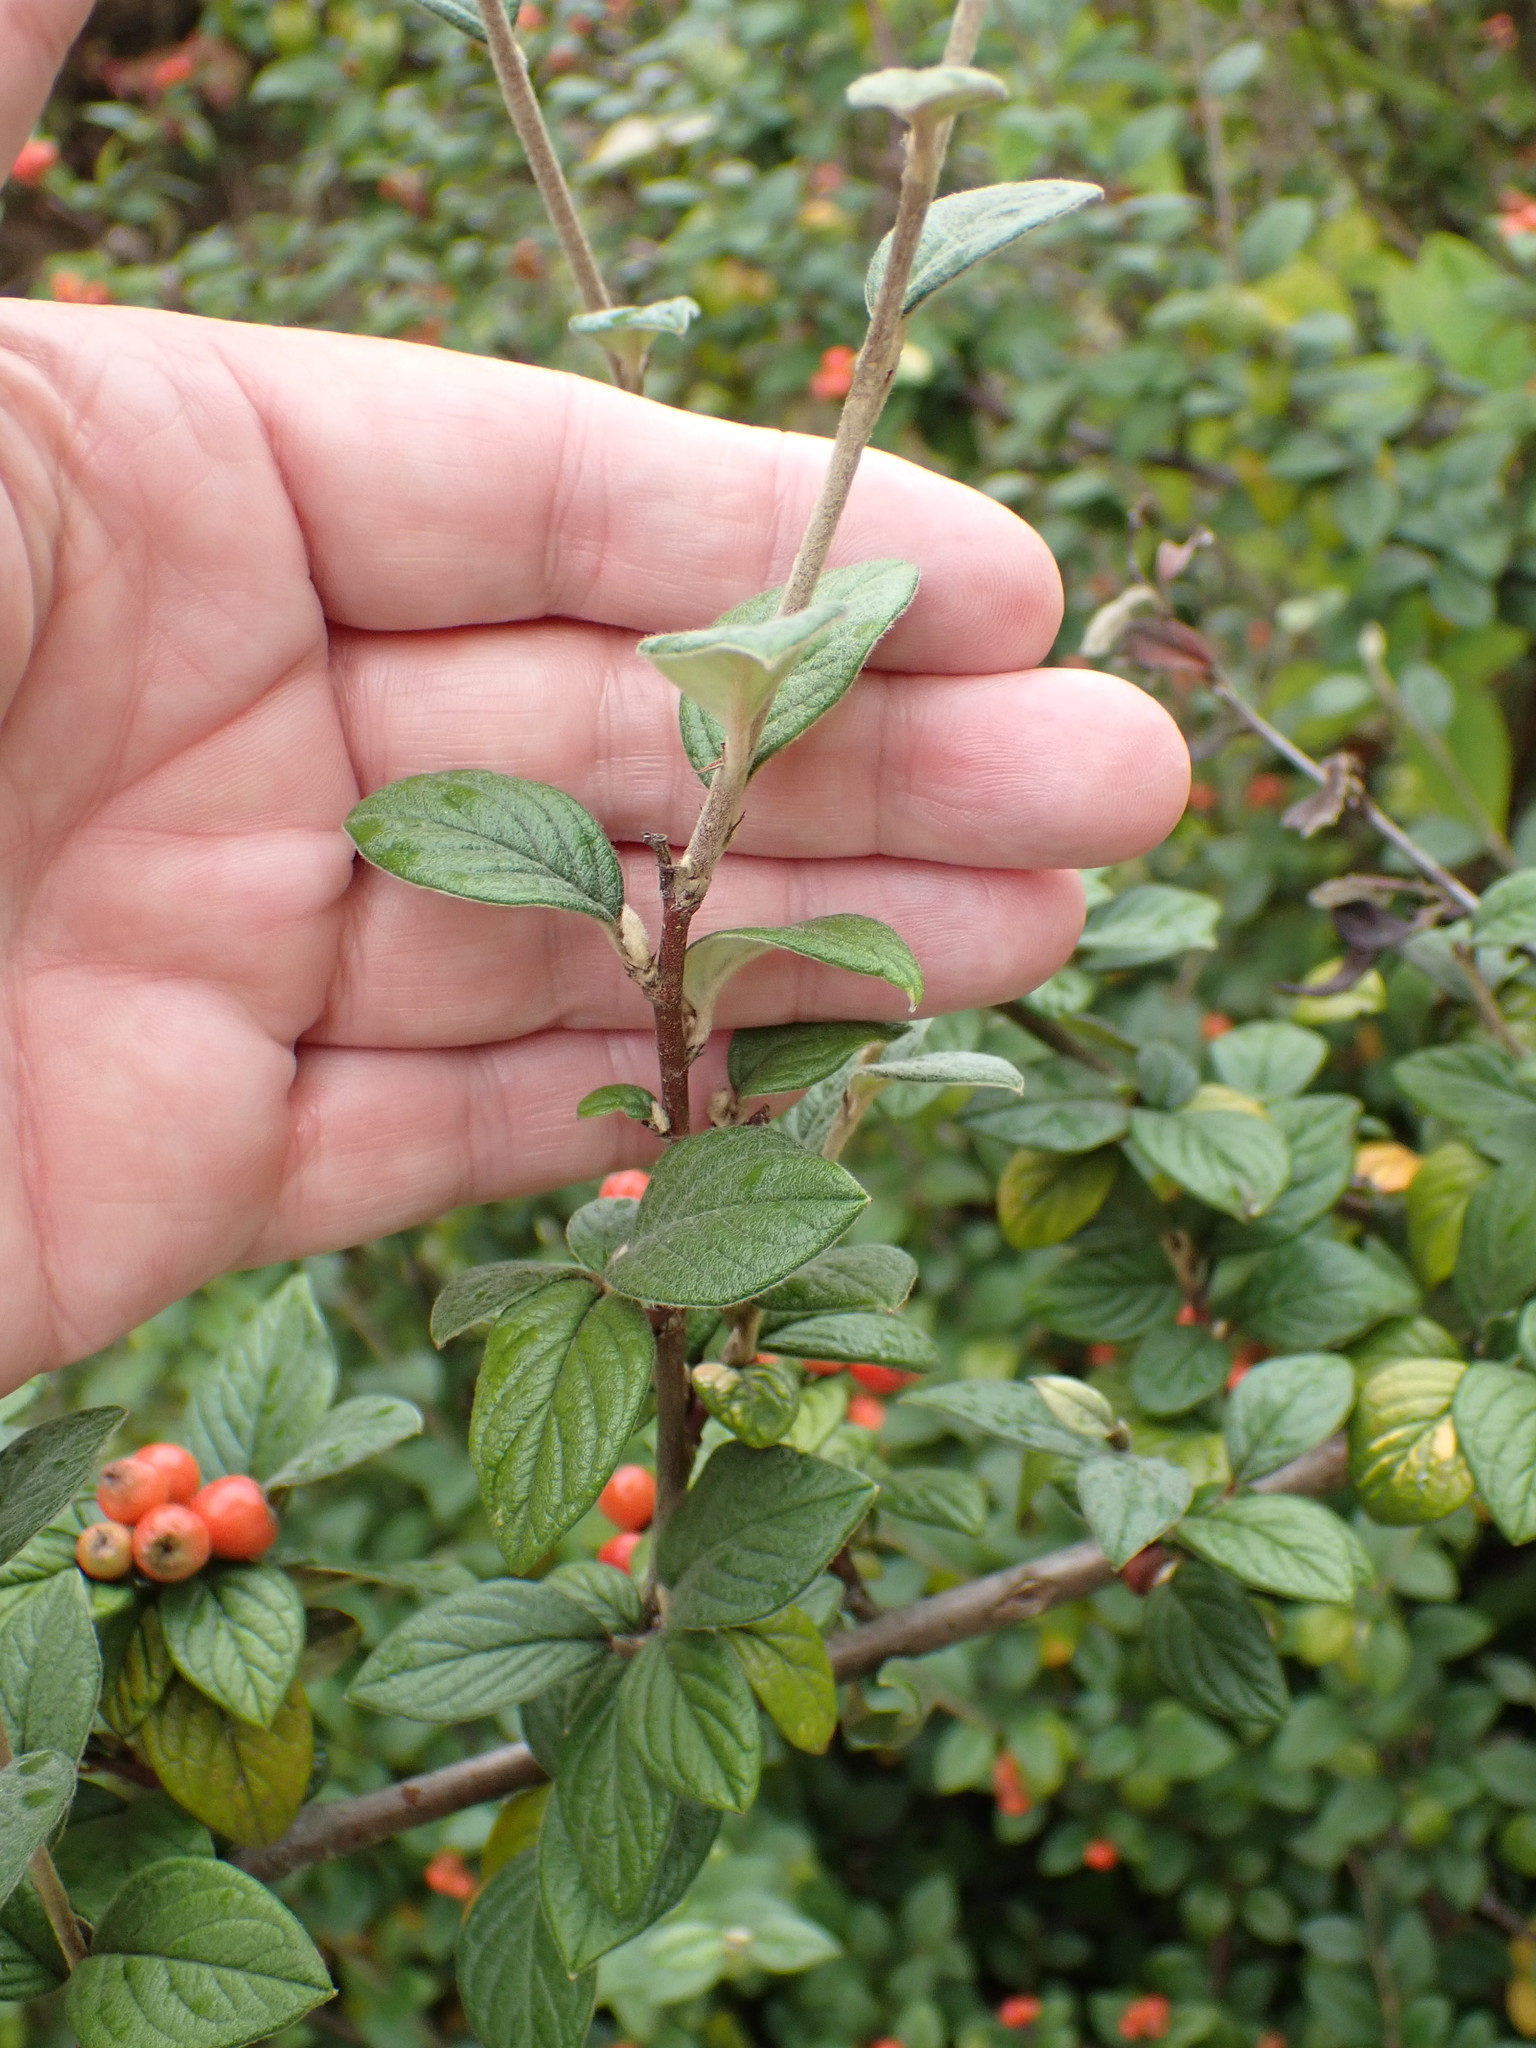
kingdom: Plantae
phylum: Tracheophyta
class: Magnoliopsida
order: Rosales
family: Rosaceae
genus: Cotoneaster
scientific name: Cotoneaster franchetii
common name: Franchet's cotoneaster
